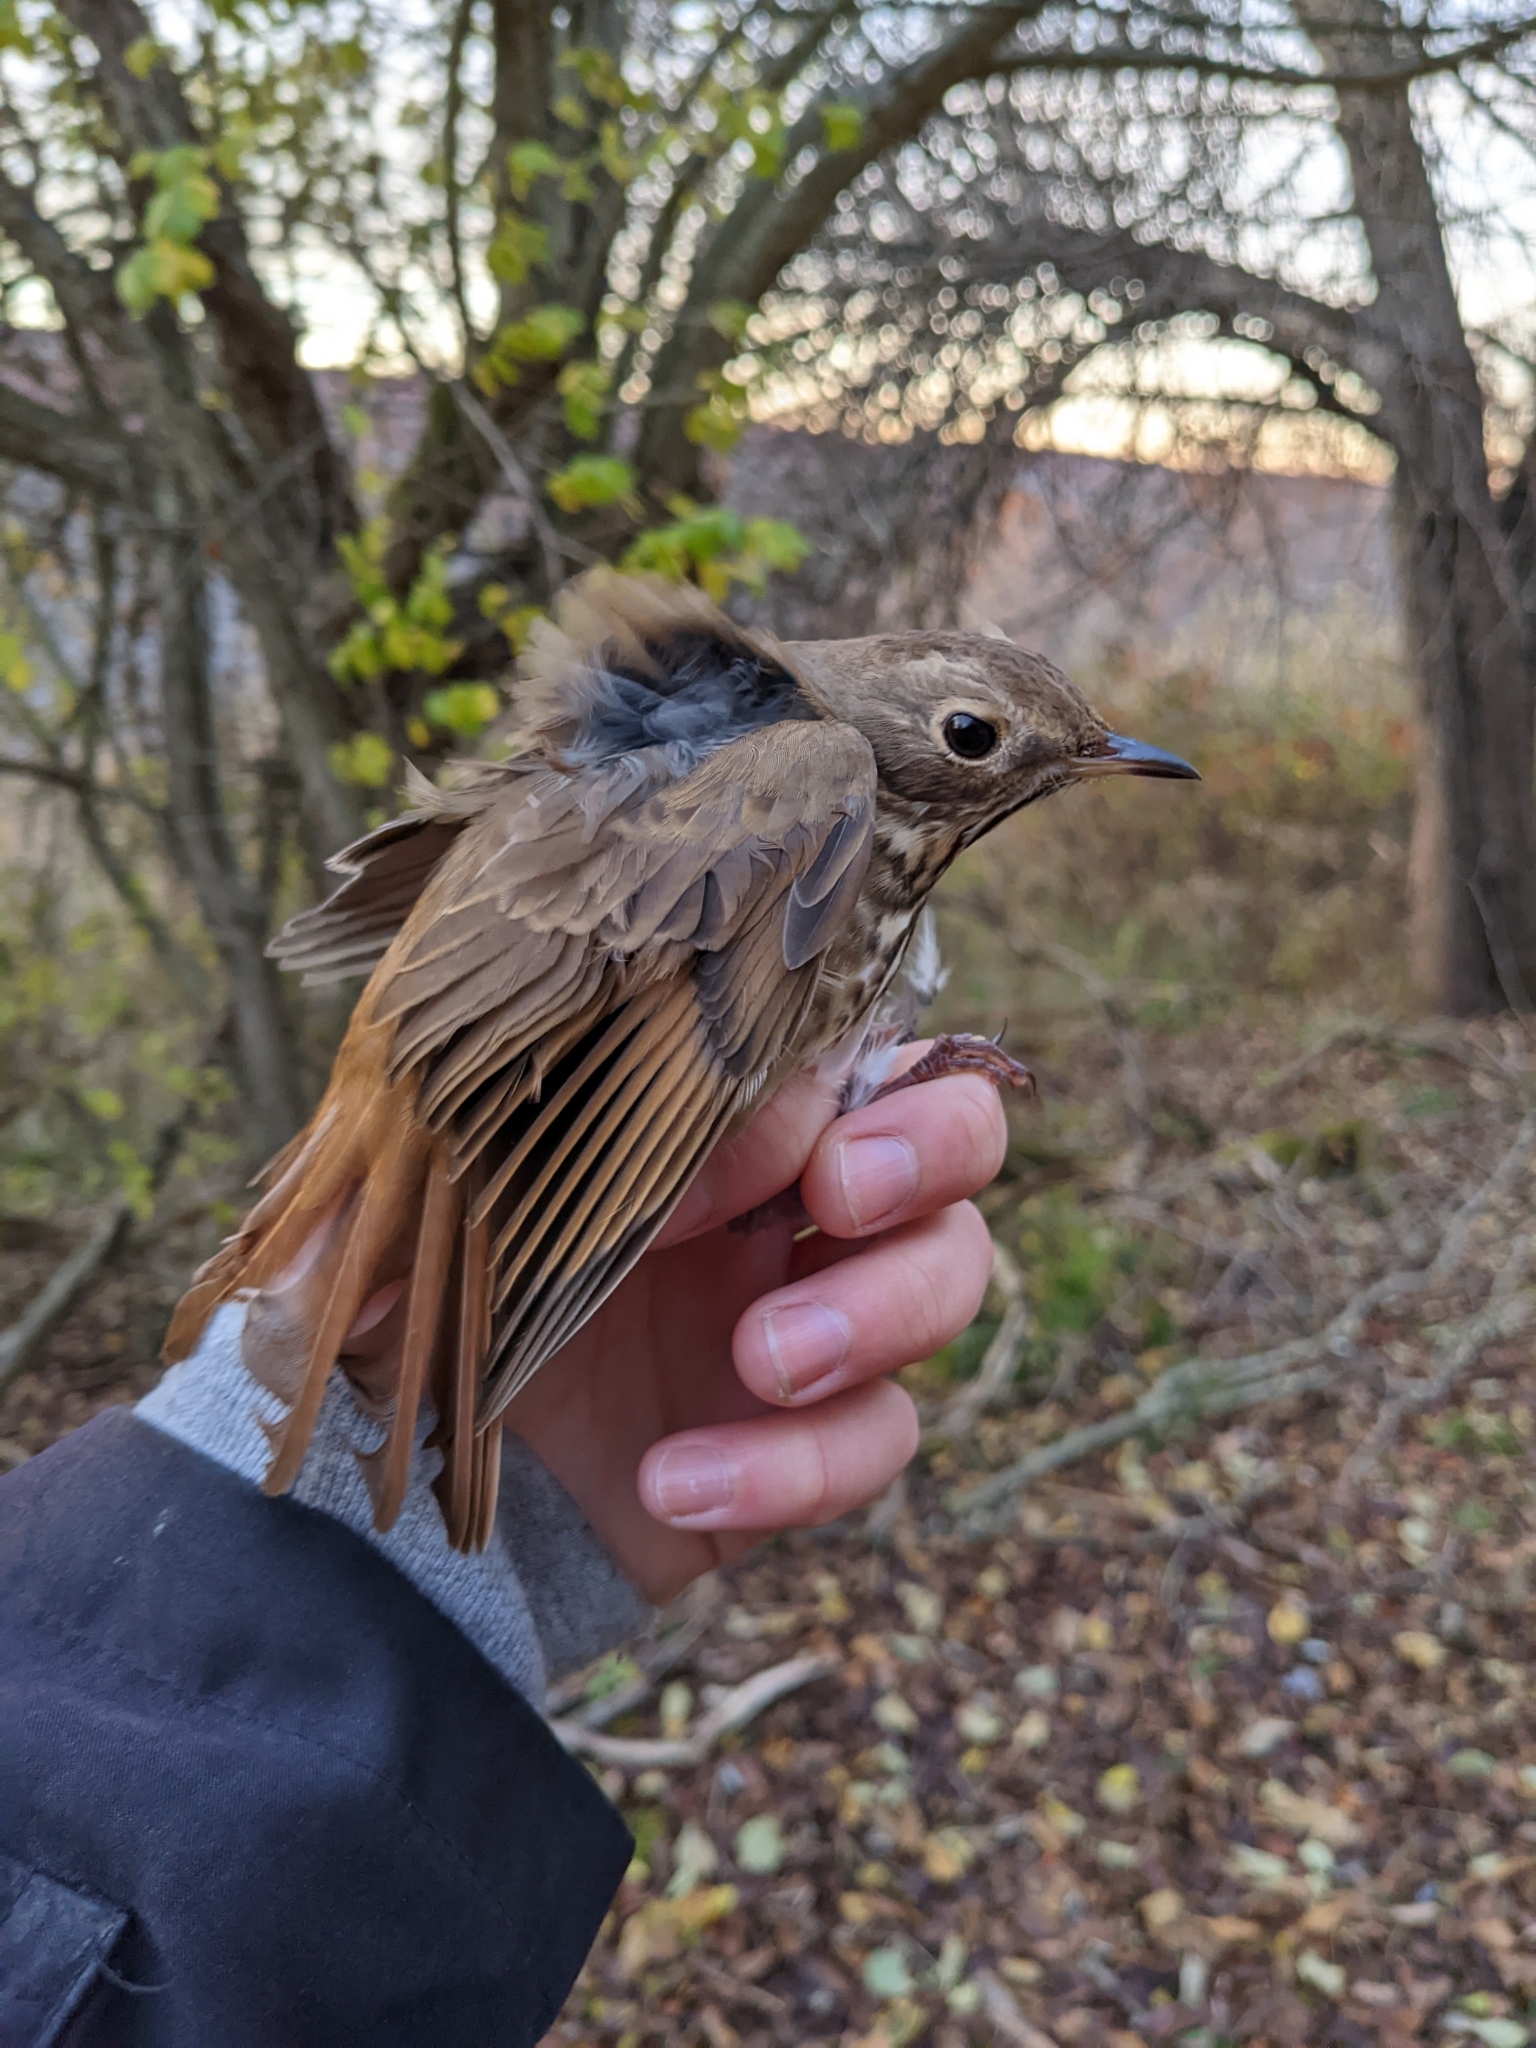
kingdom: Animalia
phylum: Chordata
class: Aves
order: Passeriformes
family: Turdidae
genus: Catharus
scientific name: Catharus guttatus
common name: Hermit thrush
